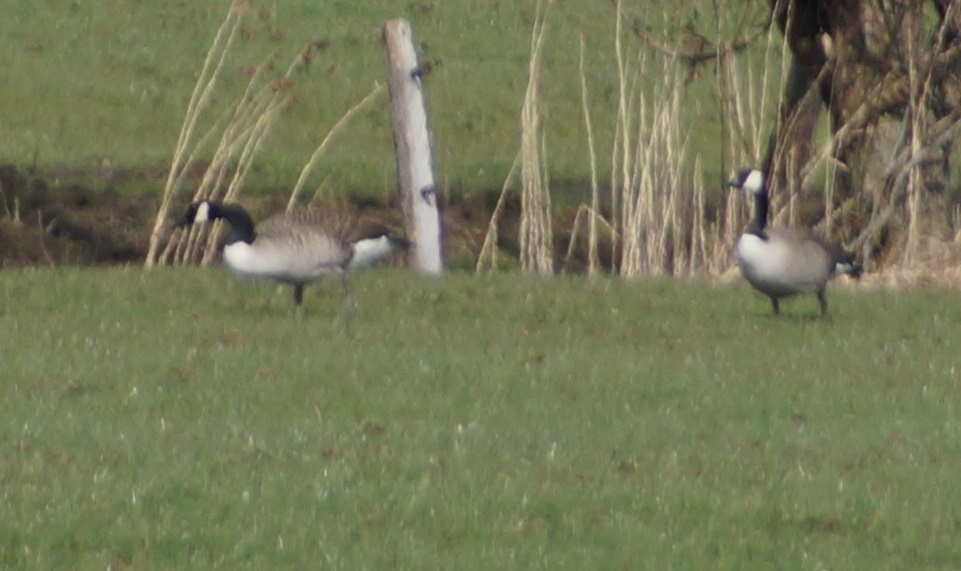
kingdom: Animalia
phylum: Chordata
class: Aves
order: Anseriformes
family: Anatidae
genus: Branta
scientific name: Branta canadensis
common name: Canada goose
